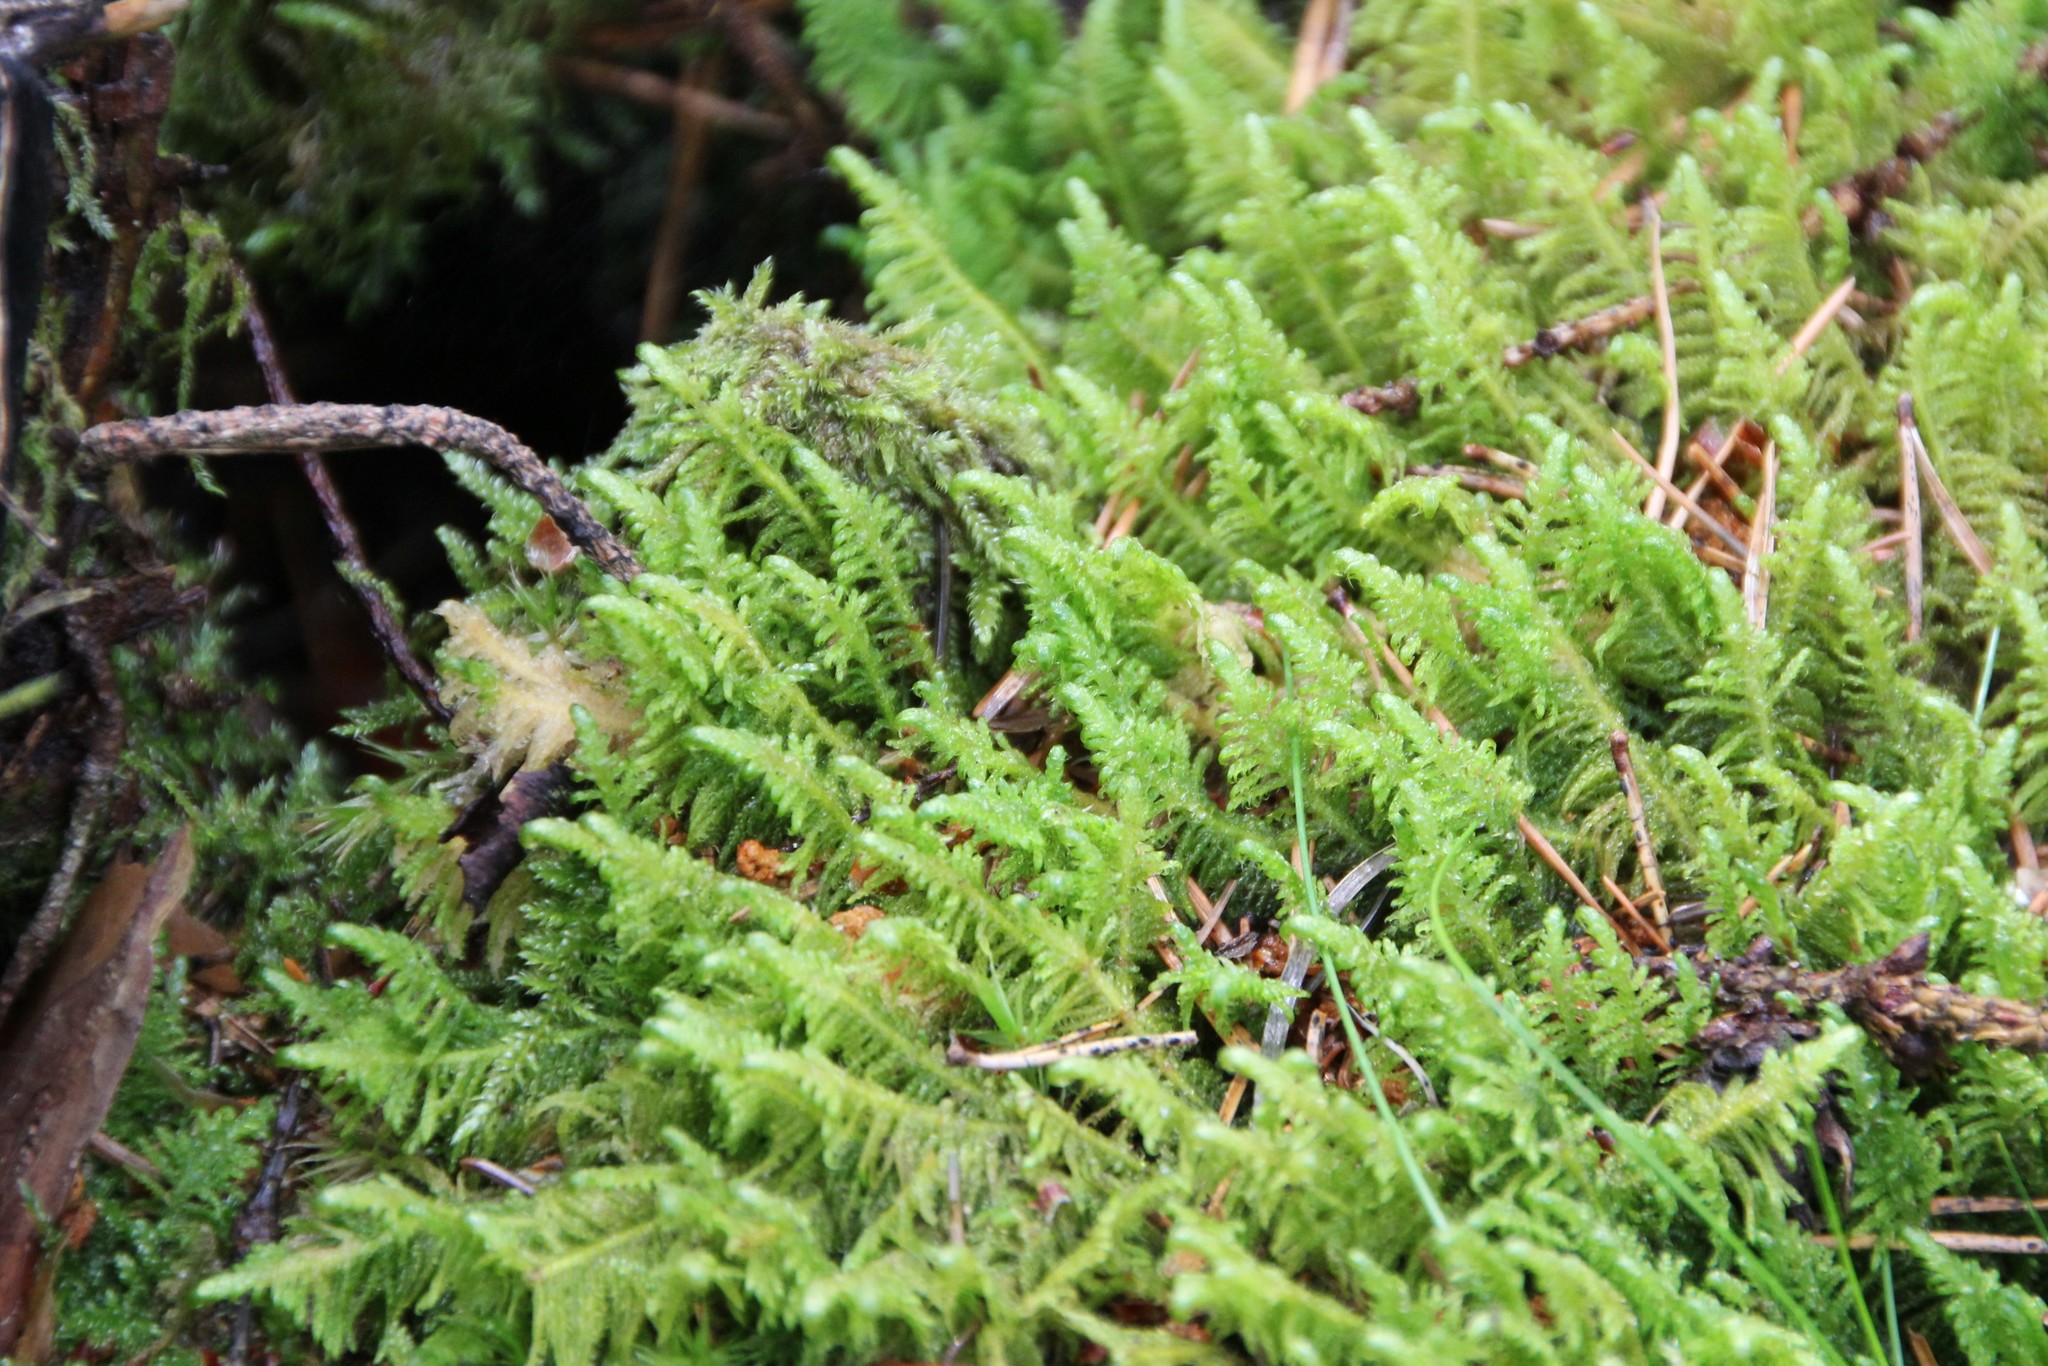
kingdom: Plantae
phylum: Bryophyta
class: Bryopsida
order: Hypnales
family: Pylaisiaceae
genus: Ptilium
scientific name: Ptilium crista-castrensis
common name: Knight's plume moss
